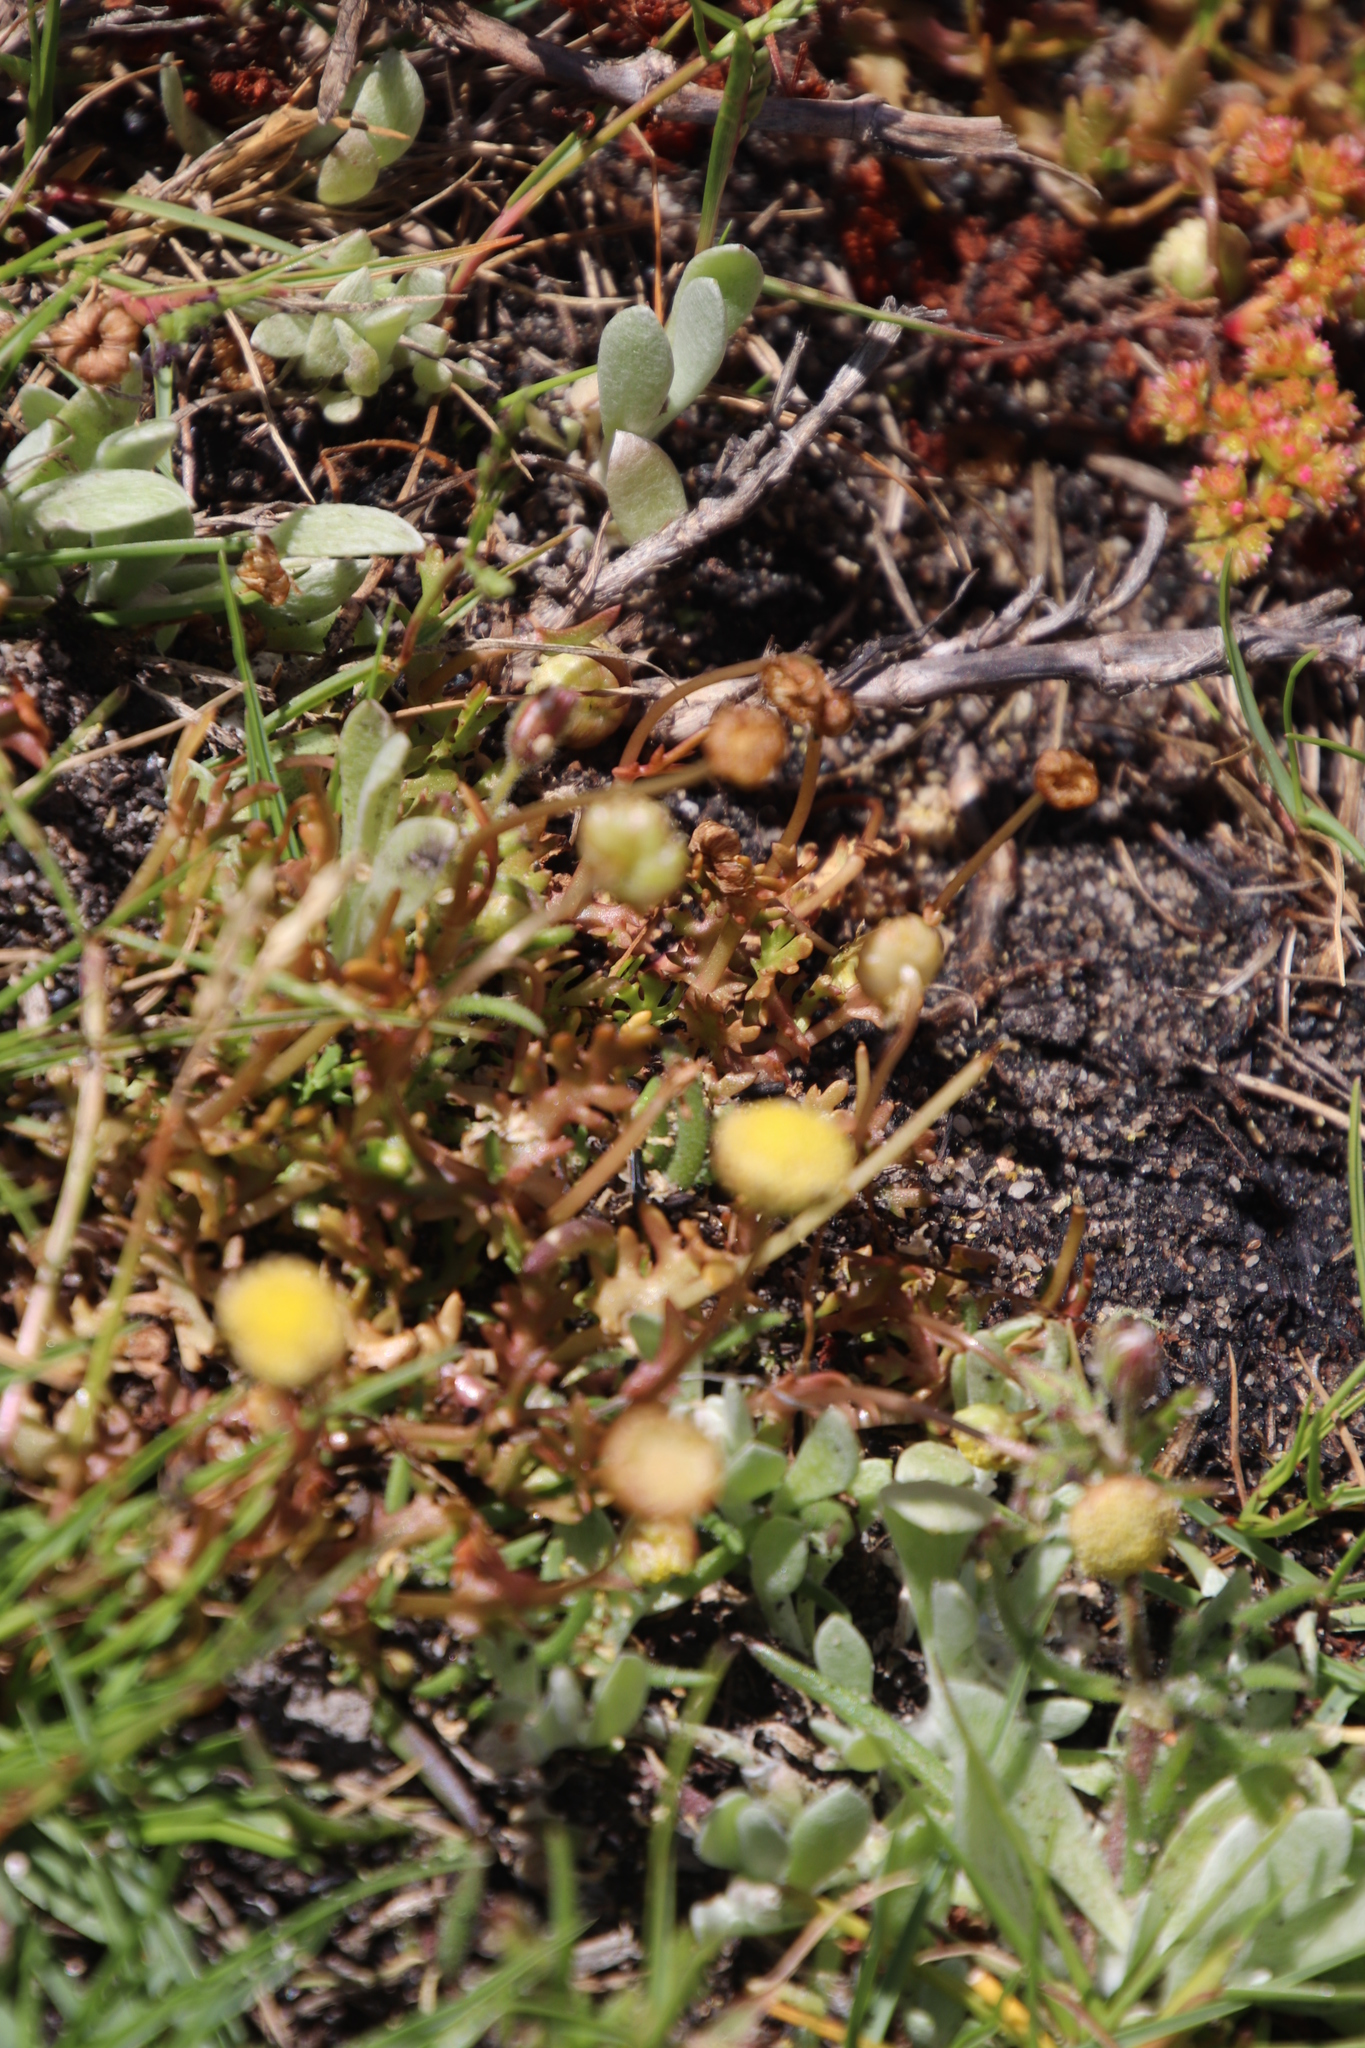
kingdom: Plantae
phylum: Tracheophyta
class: Magnoliopsida
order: Asterales
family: Asteraceae
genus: Cotula
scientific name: Cotula coronopifolia
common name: Buttonweed
